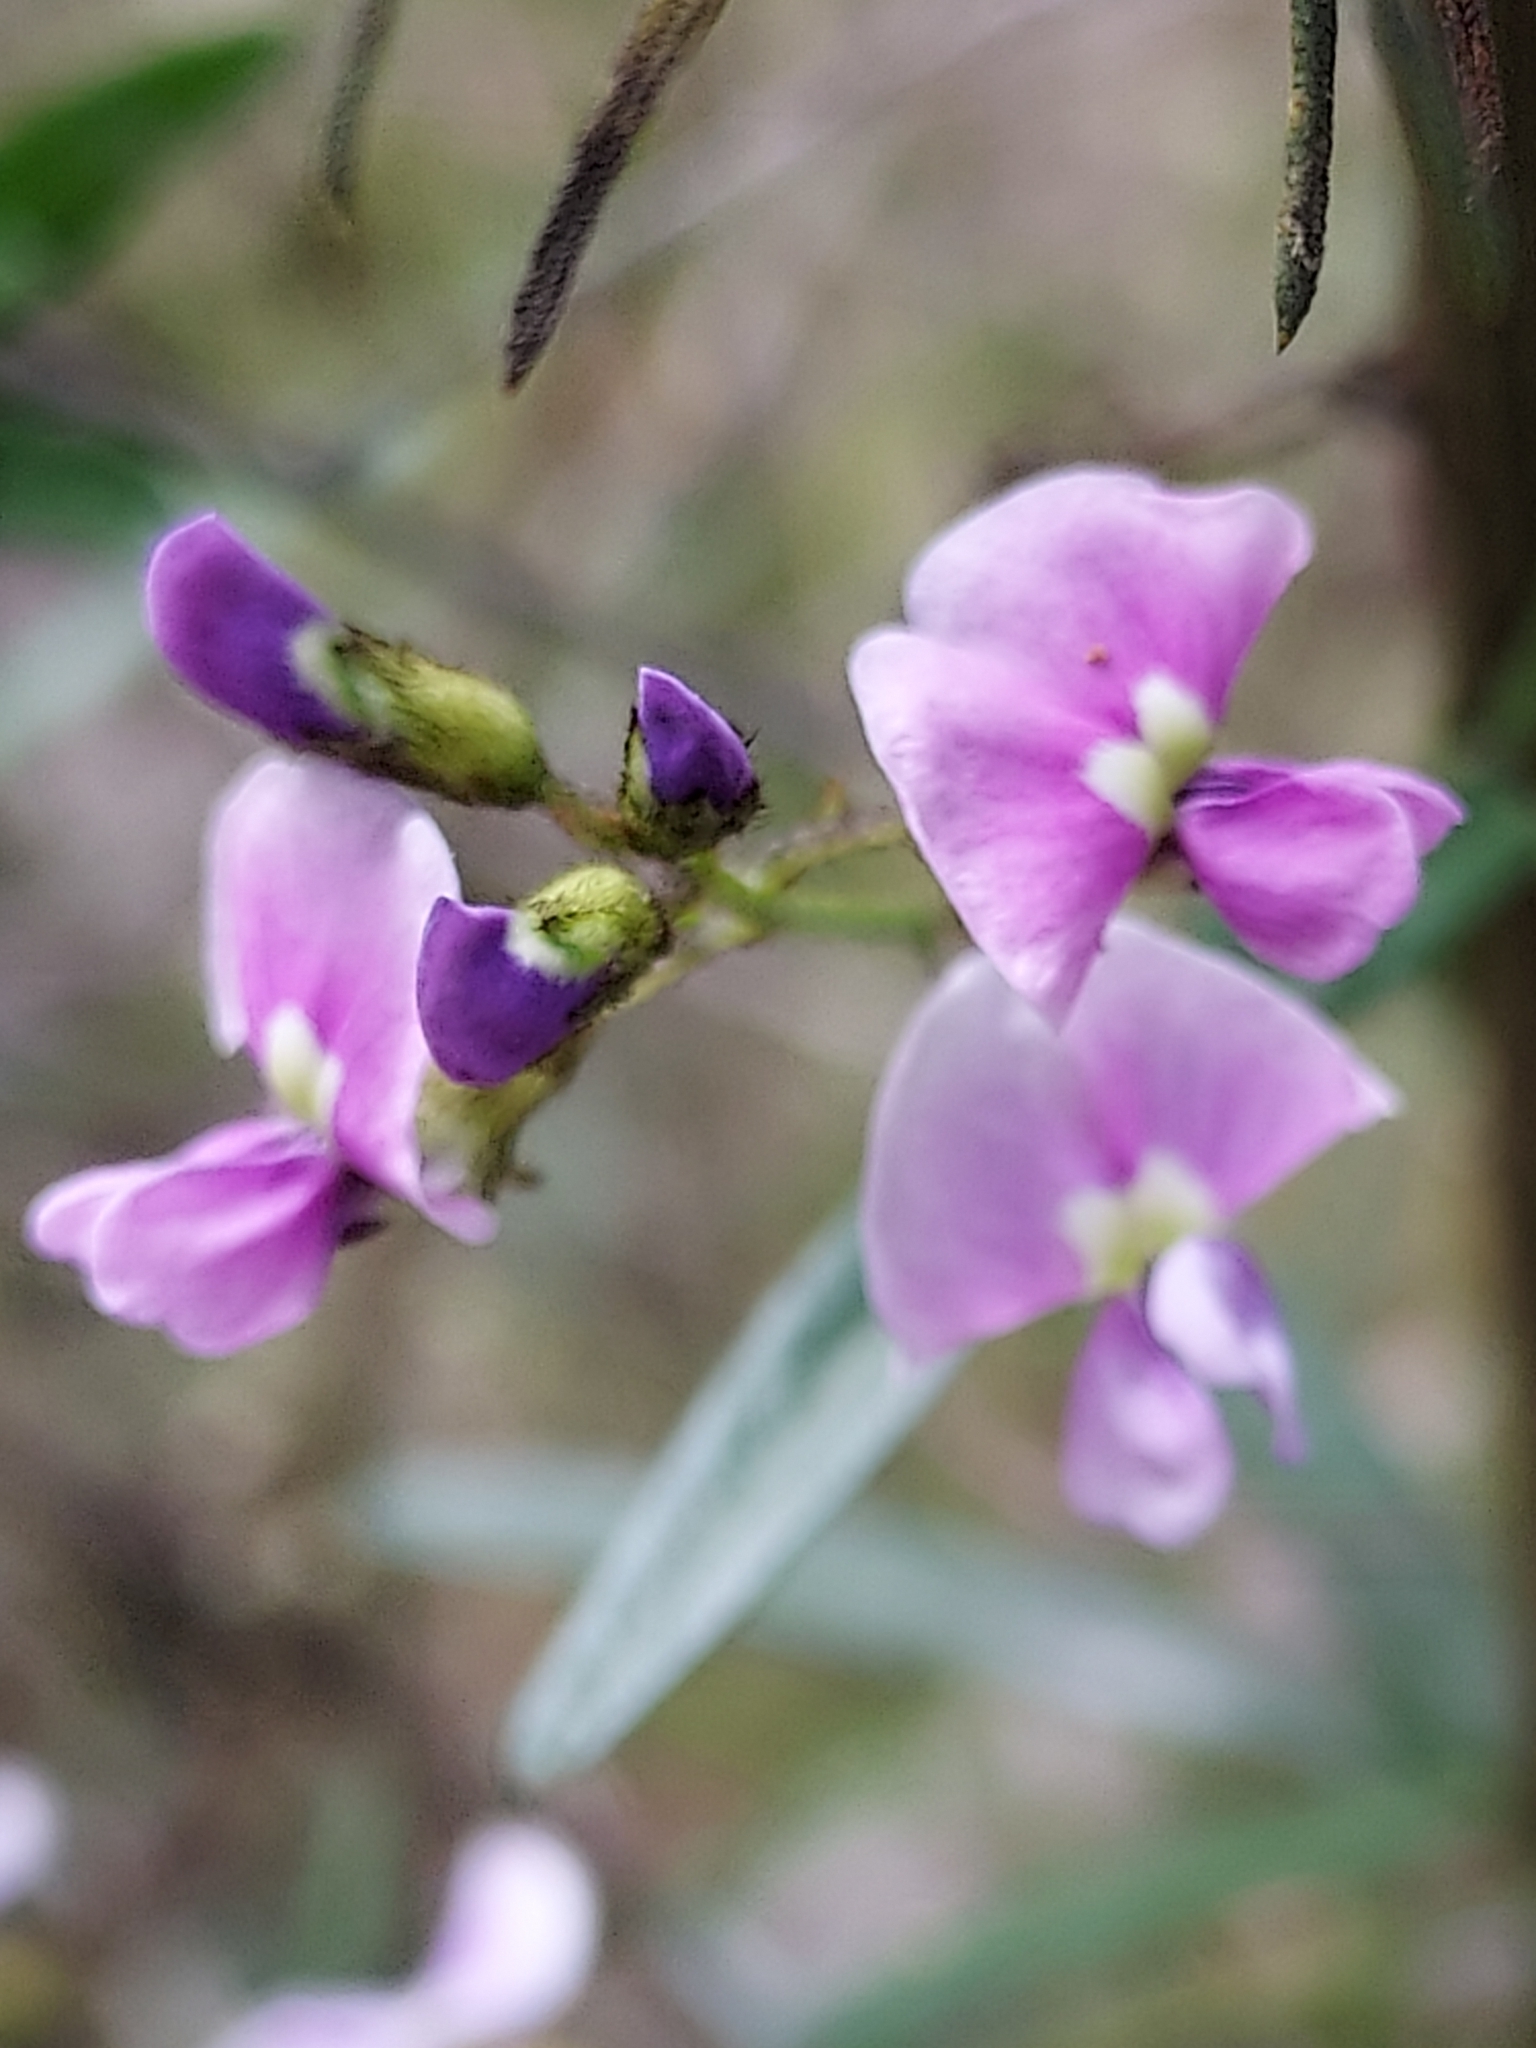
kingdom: Plantae
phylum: Tracheophyta
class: Magnoliopsida
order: Fabales
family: Fabaceae
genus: Glycine
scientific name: Glycine clandestina
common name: Twining glycine
